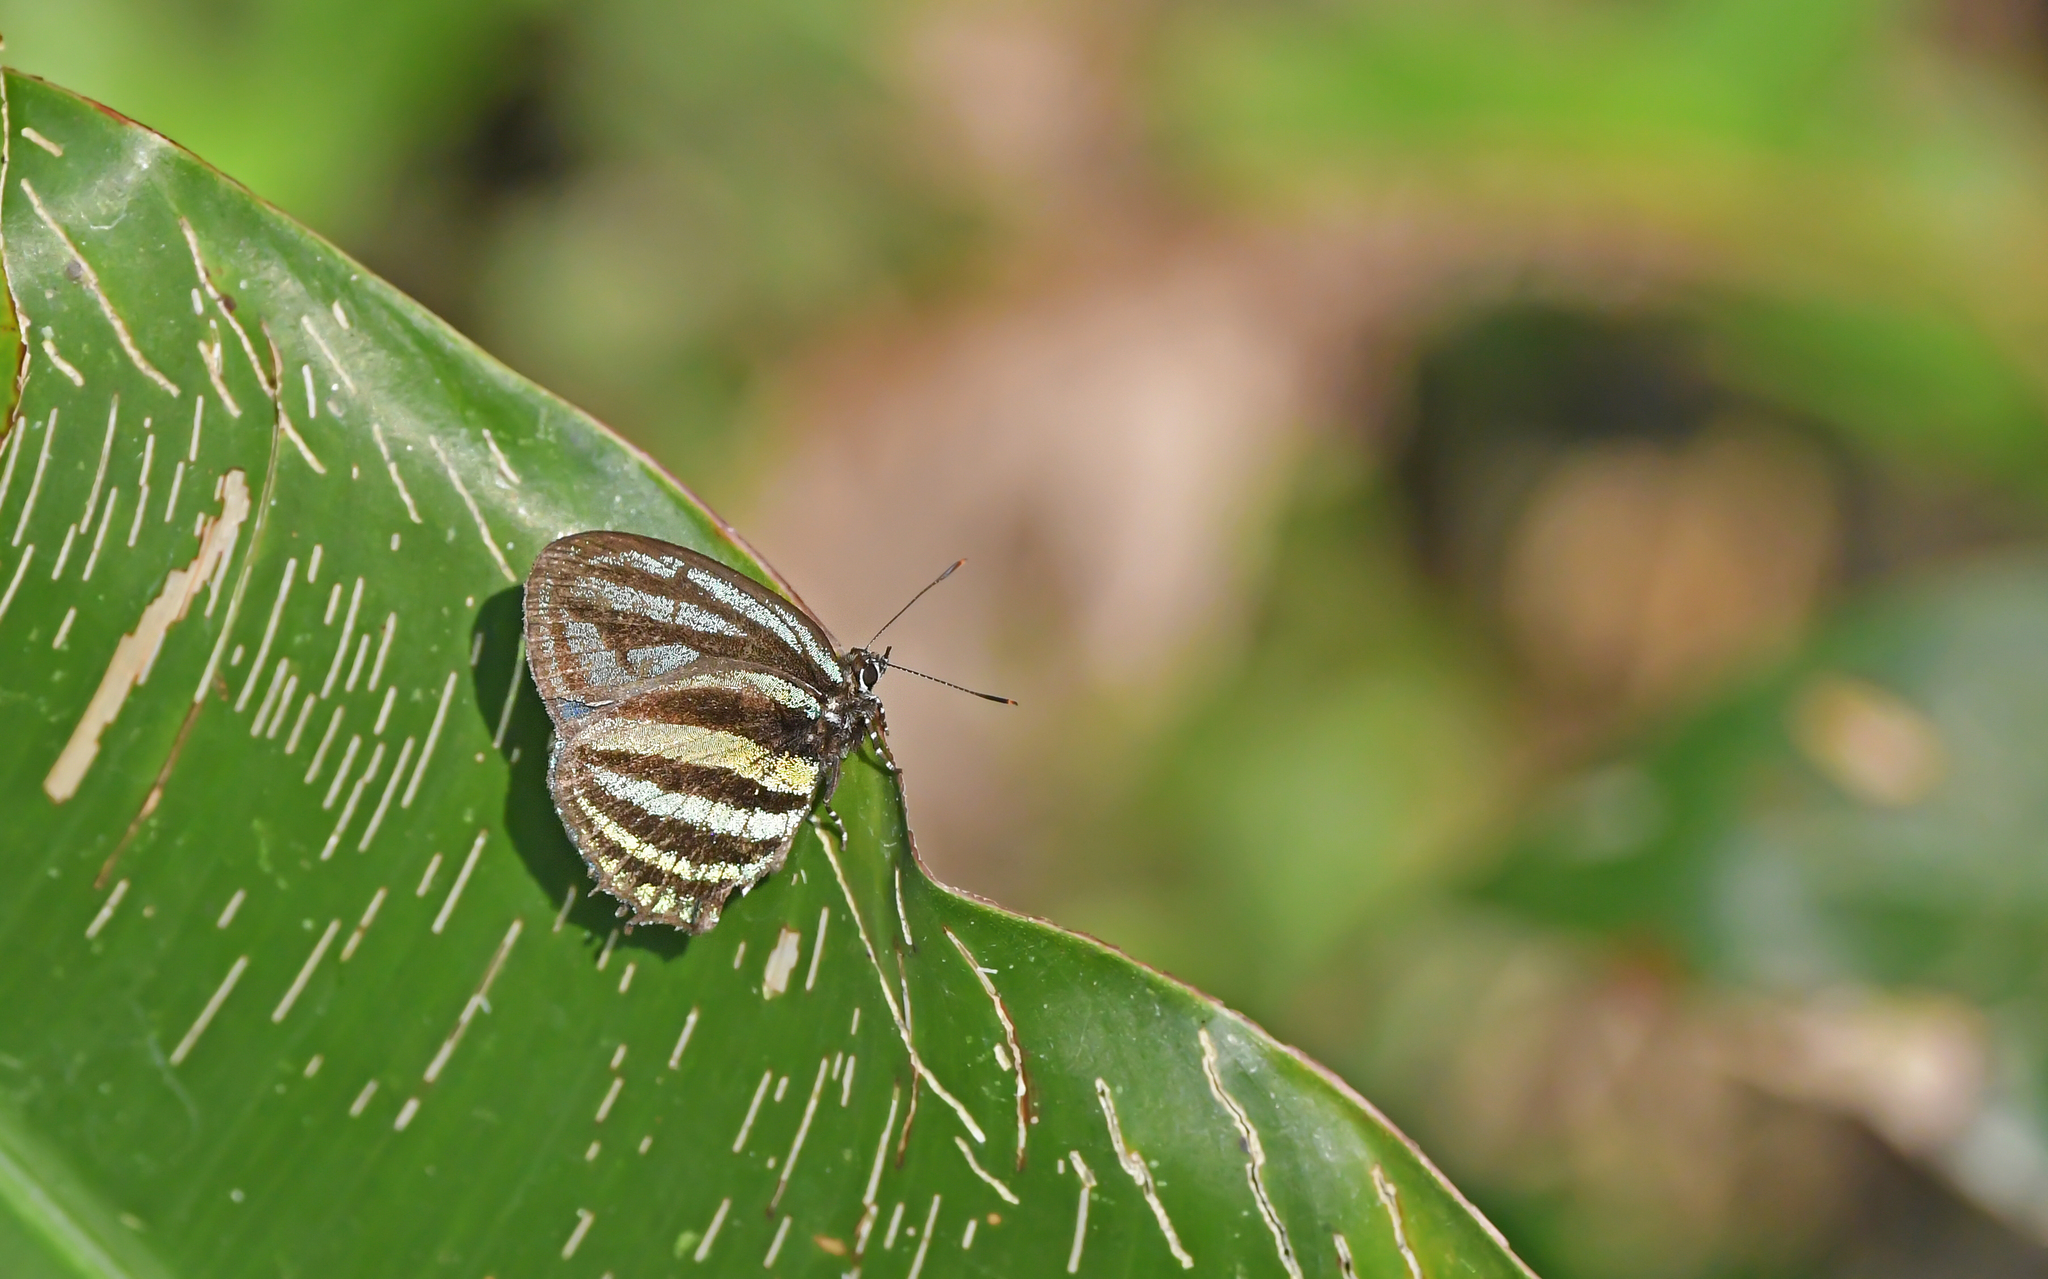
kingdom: Animalia
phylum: Arthropoda
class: Insecta
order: Lepidoptera
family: Lycaenidae
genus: Thestius
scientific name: Thestius
